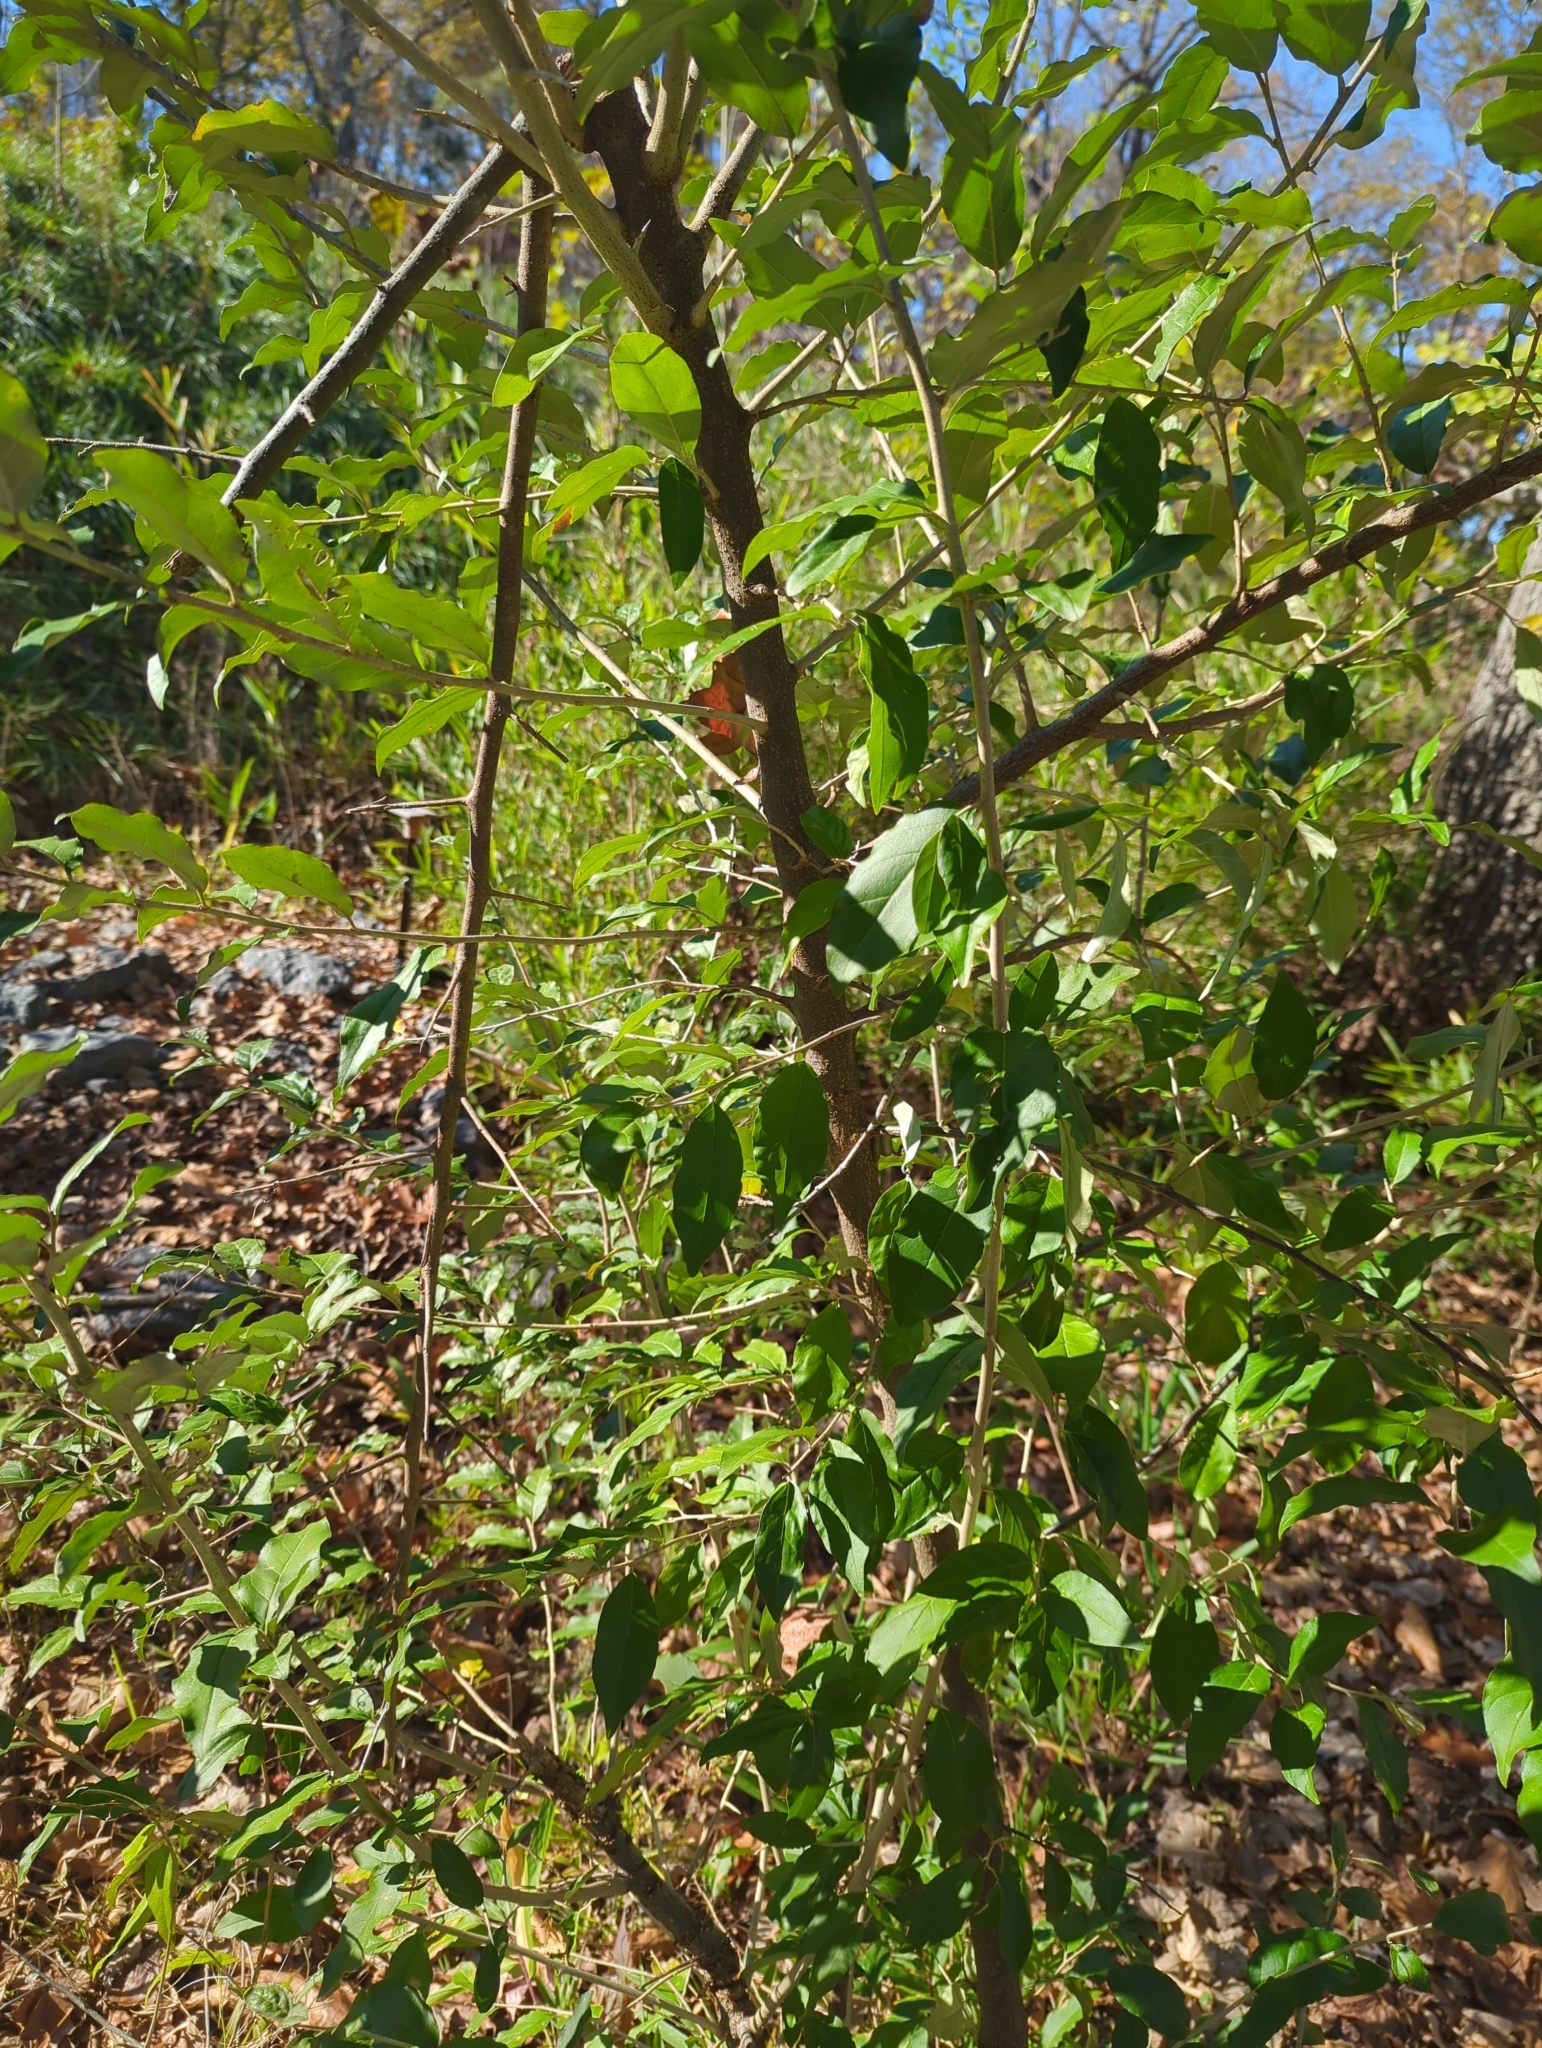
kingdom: Plantae
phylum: Tracheophyta
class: Magnoliopsida
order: Rosales
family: Elaeagnaceae
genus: Elaeagnus
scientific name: Elaeagnus umbellata
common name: Autumn olive
